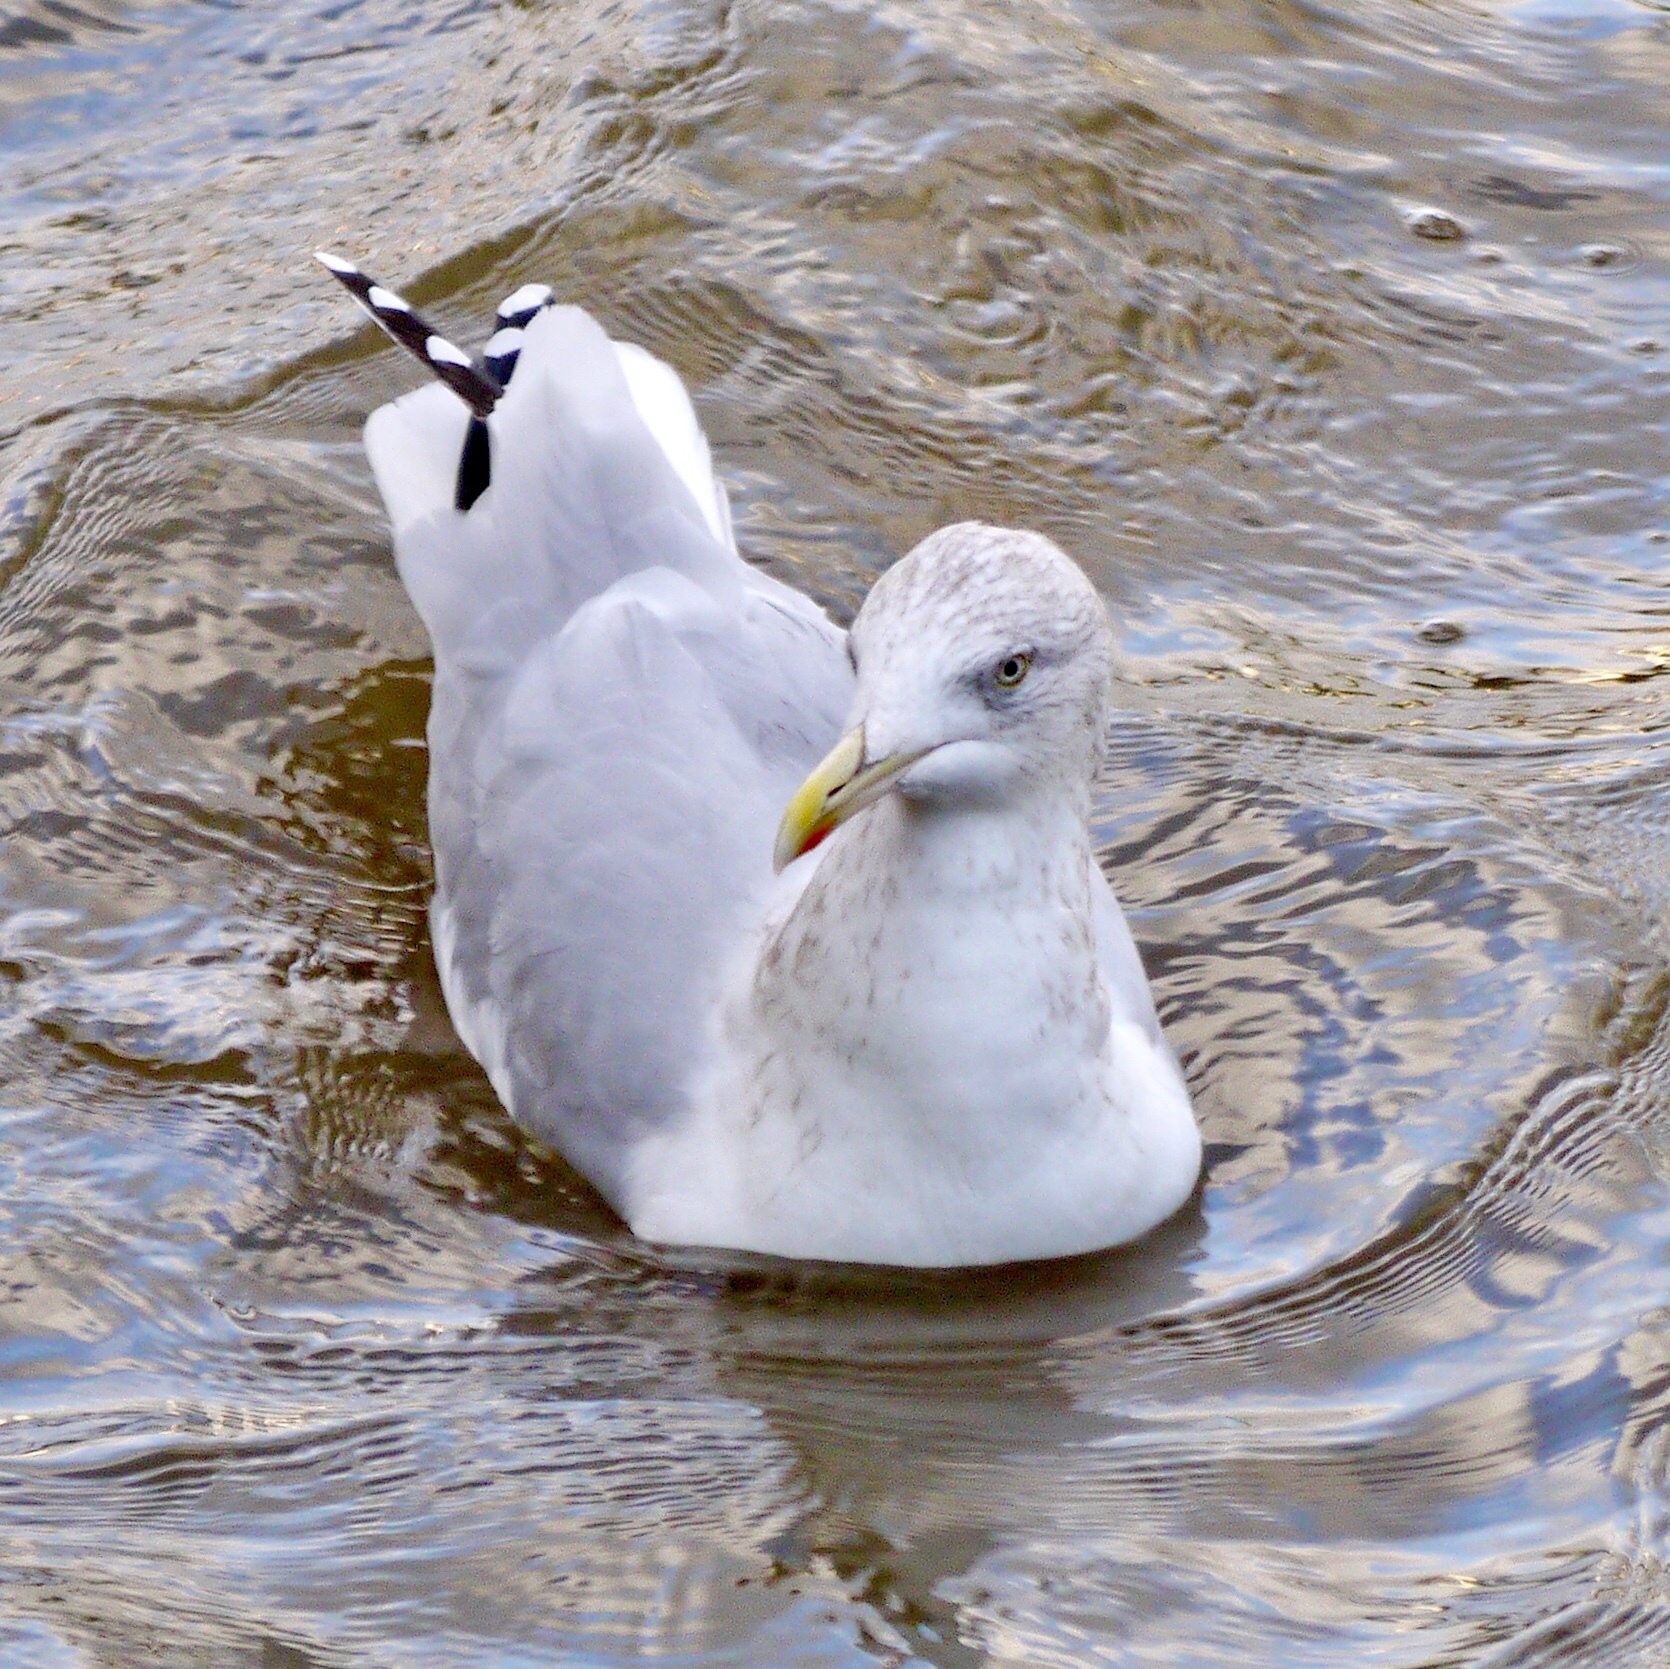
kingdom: Animalia
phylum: Chordata
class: Aves
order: Charadriiformes
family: Laridae
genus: Larus
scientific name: Larus argentatus
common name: Herring gull
